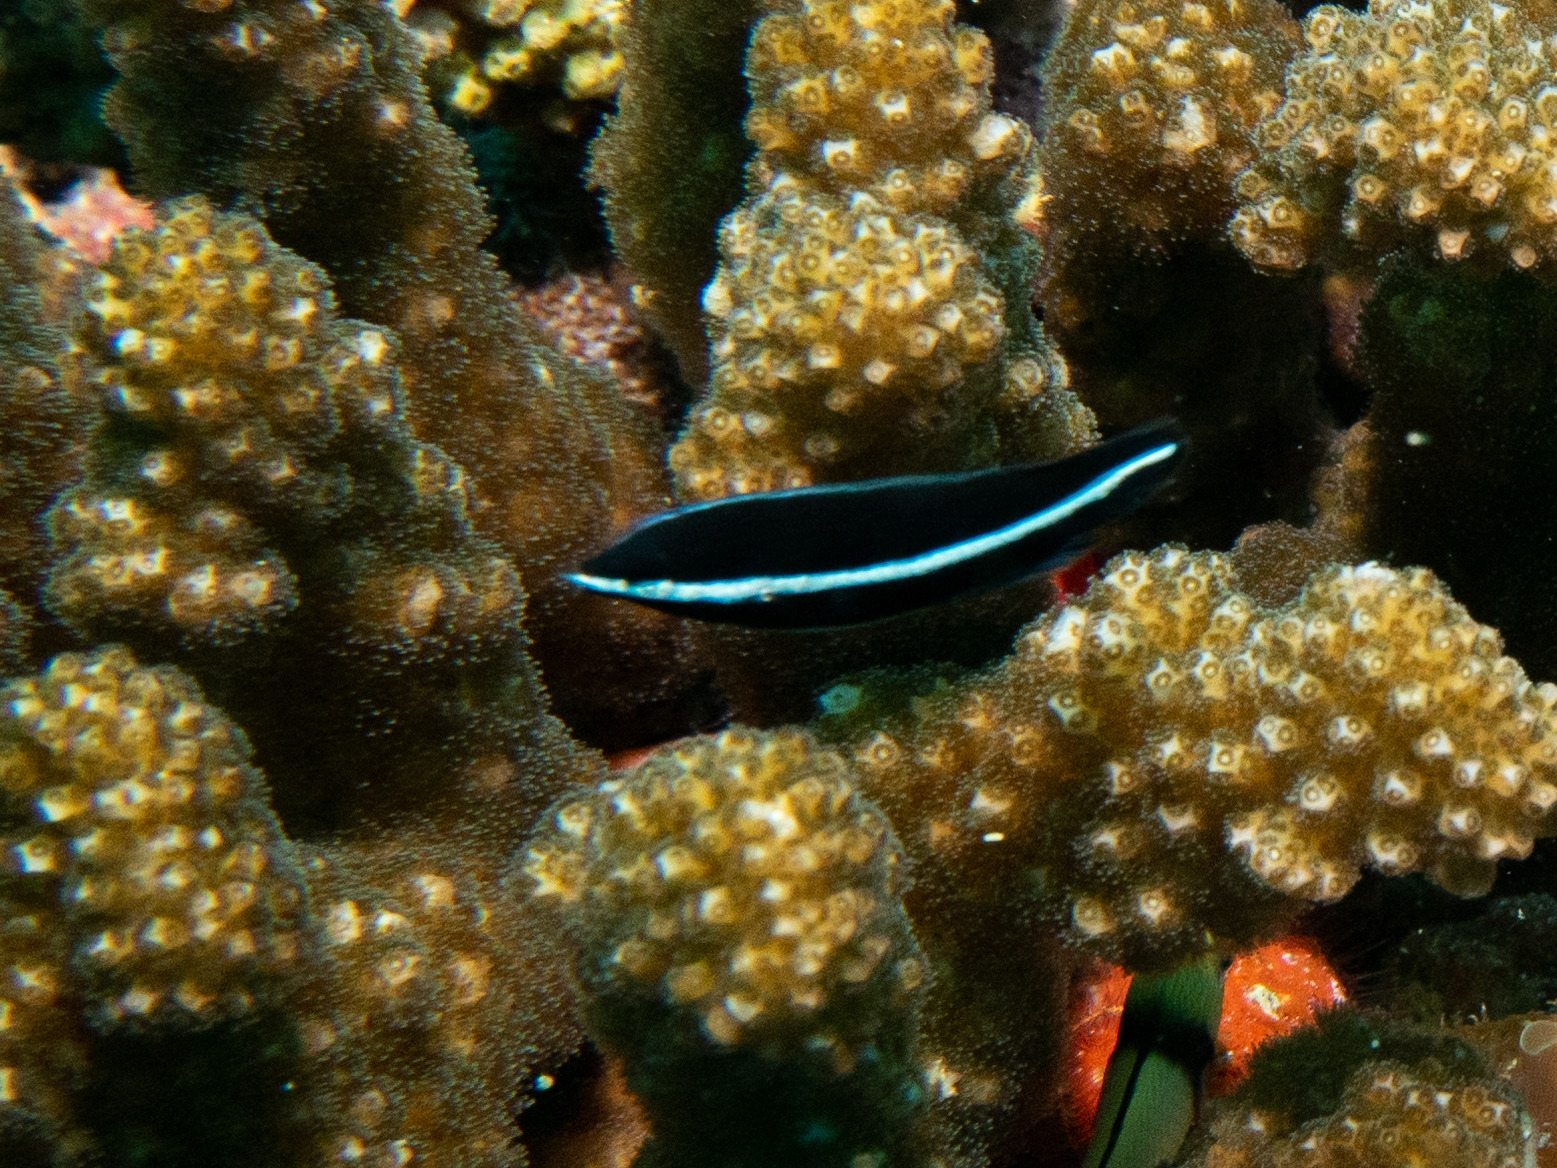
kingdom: Animalia
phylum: Chordata
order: Perciformes
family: Labridae
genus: Labrichthys
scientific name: Labrichthys unilineatus
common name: Onelined wrasse
